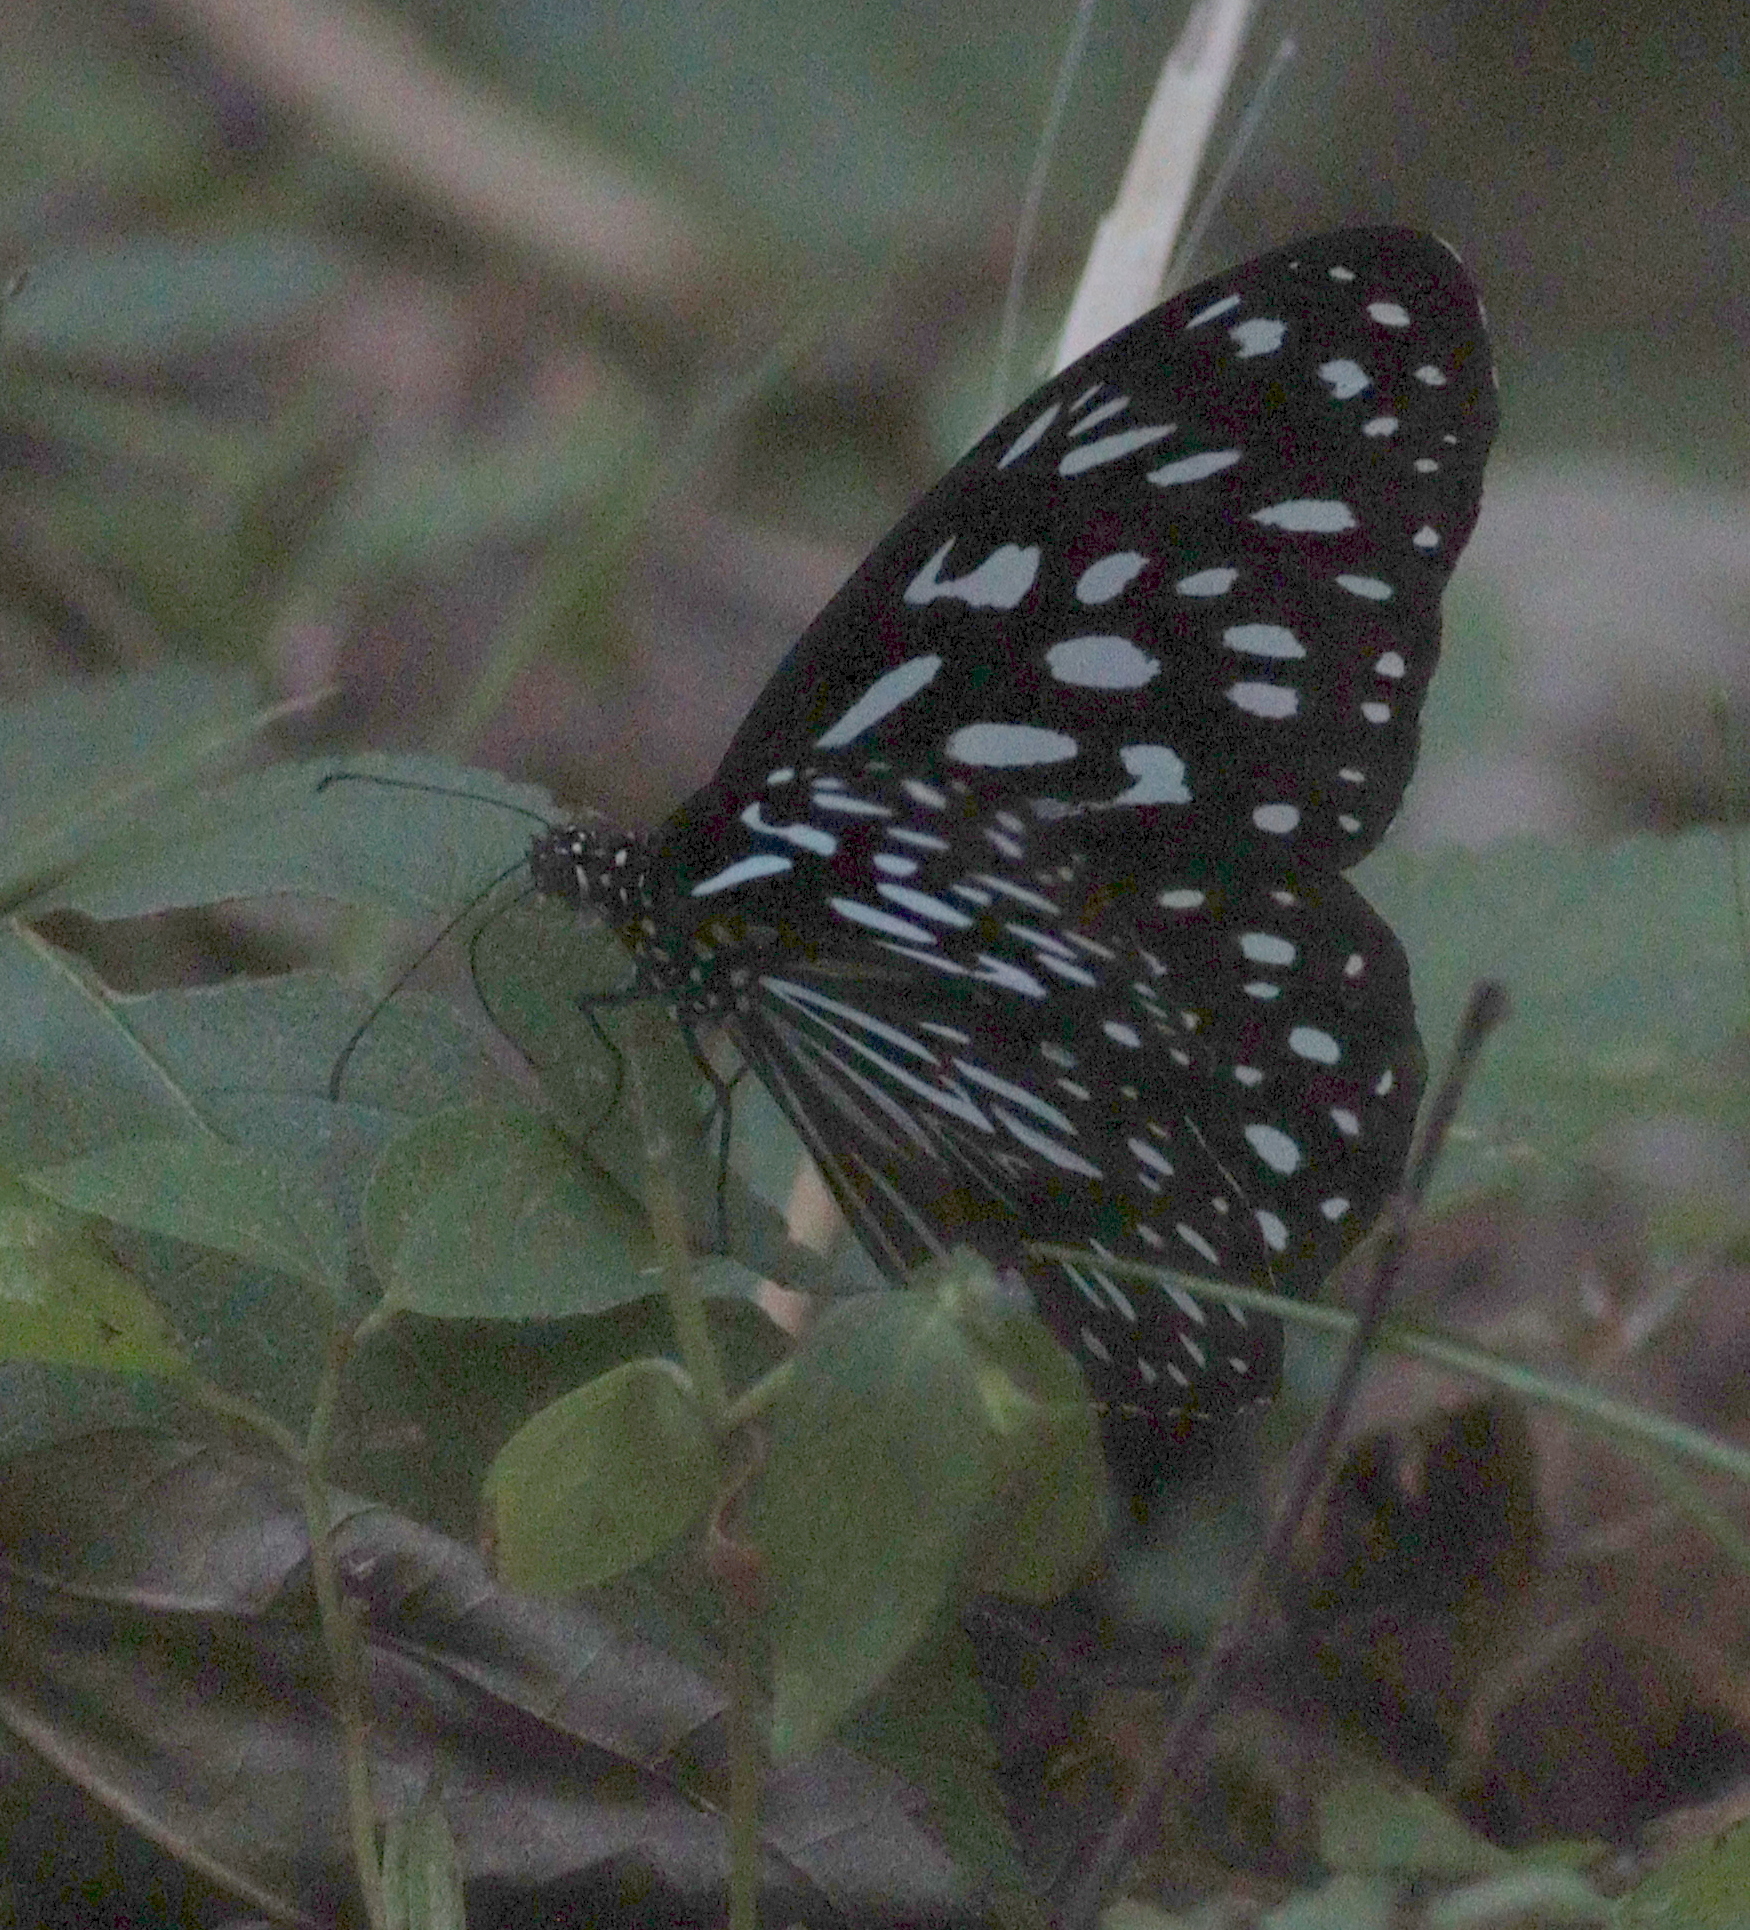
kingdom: Animalia
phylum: Arthropoda
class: Insecta
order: Lepidoptera
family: Nymphalidae
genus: Tirumala
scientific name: Tirumala hamata
